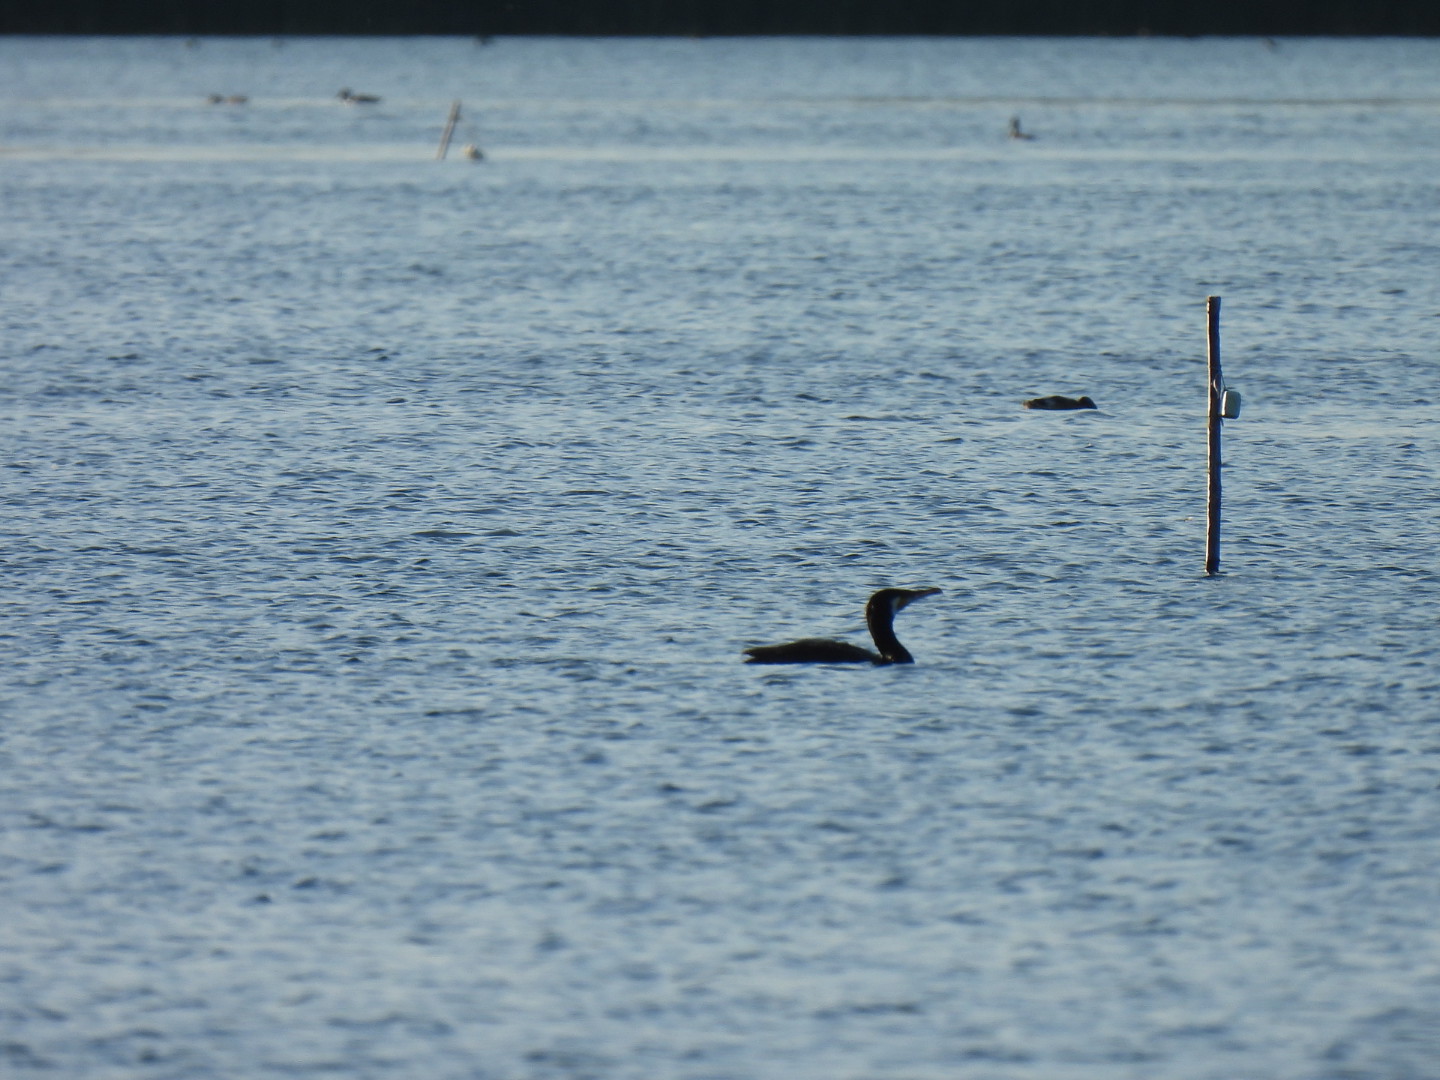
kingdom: Animalia
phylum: Chordata
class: Aves
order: Suliformes
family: Phalacrocoracidae
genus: Phalacrocorax
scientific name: Phalacrocorax carbo
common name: Great cormorant
